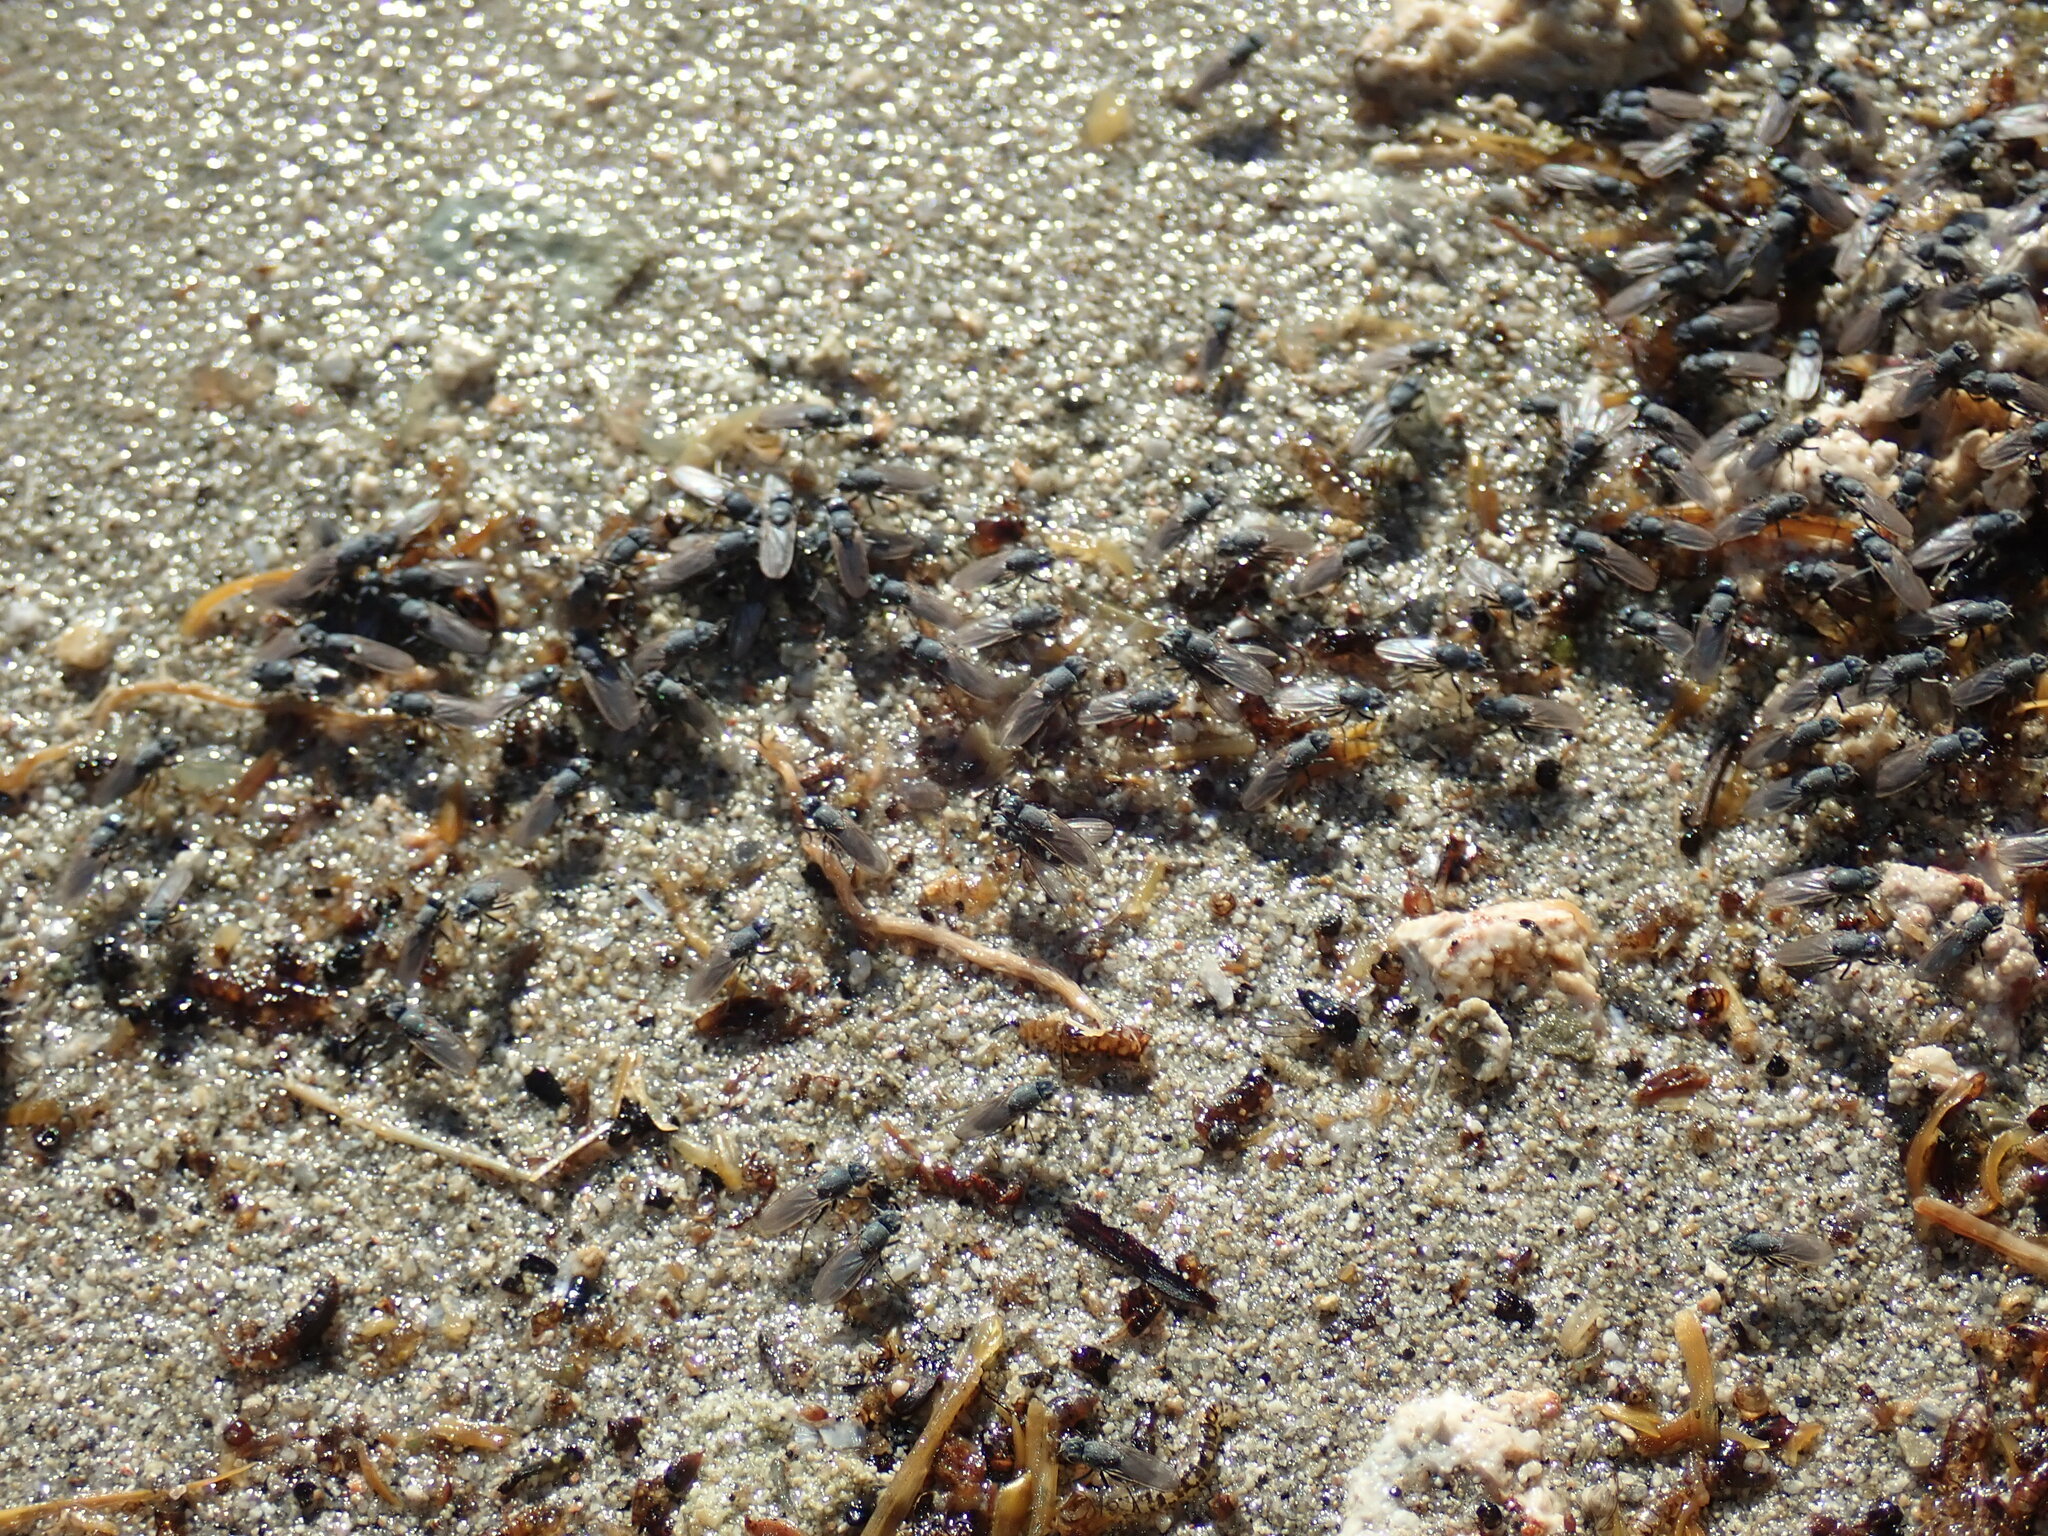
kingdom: Animalia
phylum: Arthropoda
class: Insecta
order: Diptera
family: Ephydridae
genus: Cirrula
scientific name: Cirrula hians
